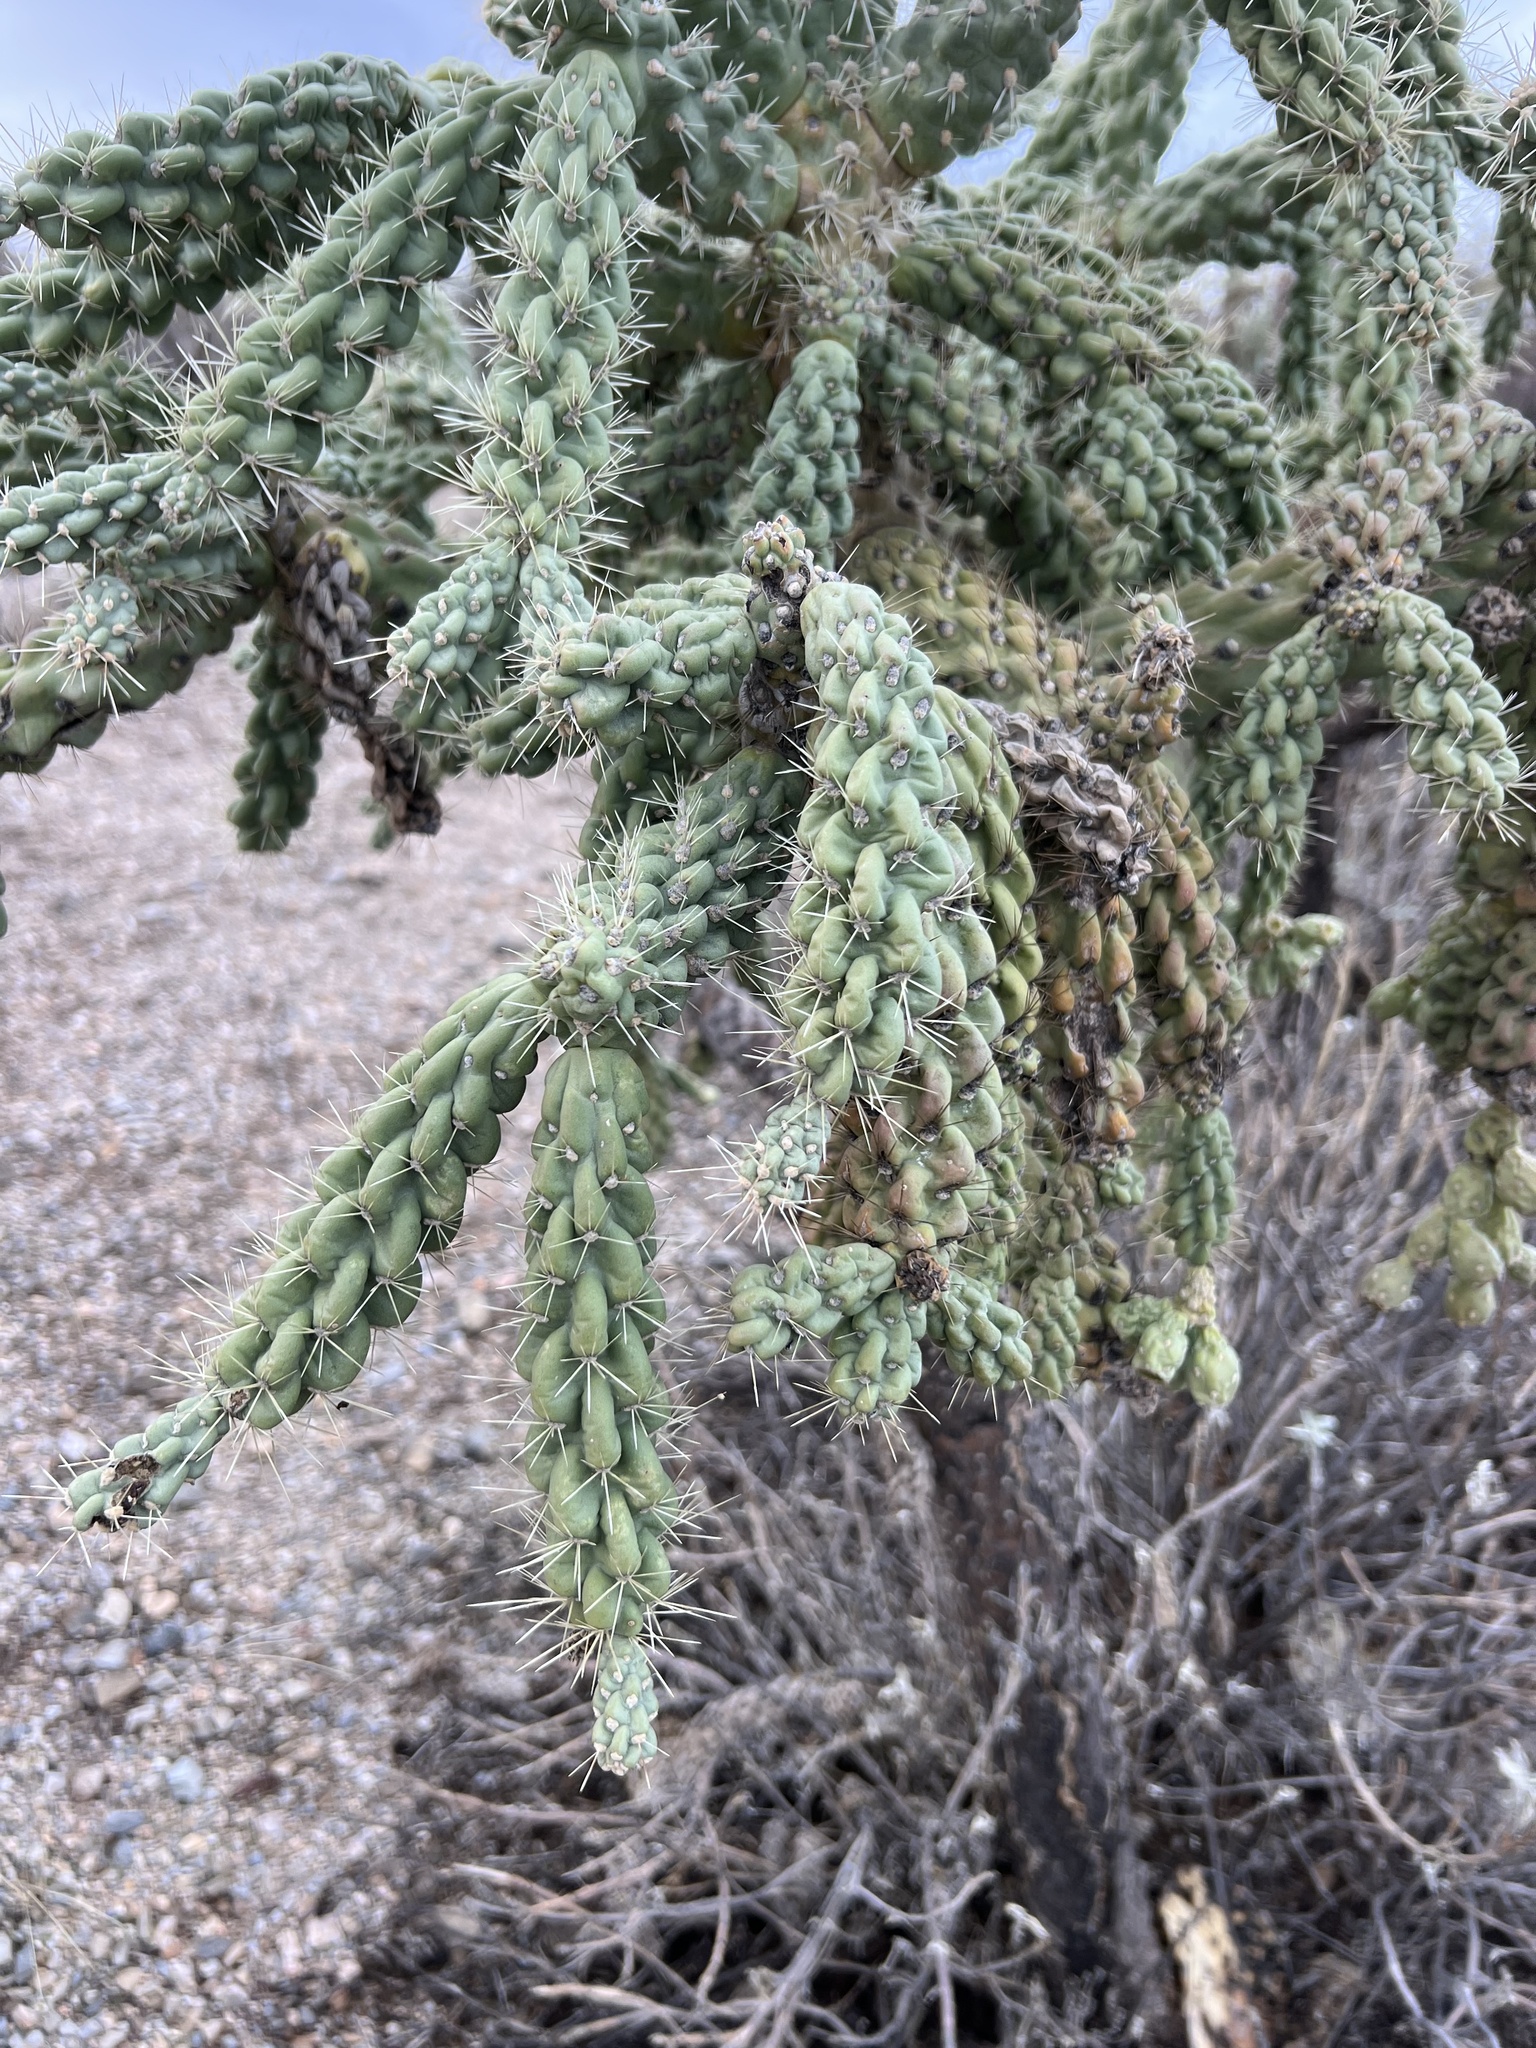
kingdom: Plantae
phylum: Tracheophyta
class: Magnoliopsida
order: Caryophyllales
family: Cactaceae
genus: Cylindropuntia
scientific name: Cylindropuntia fulgida
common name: Jumping cholla
